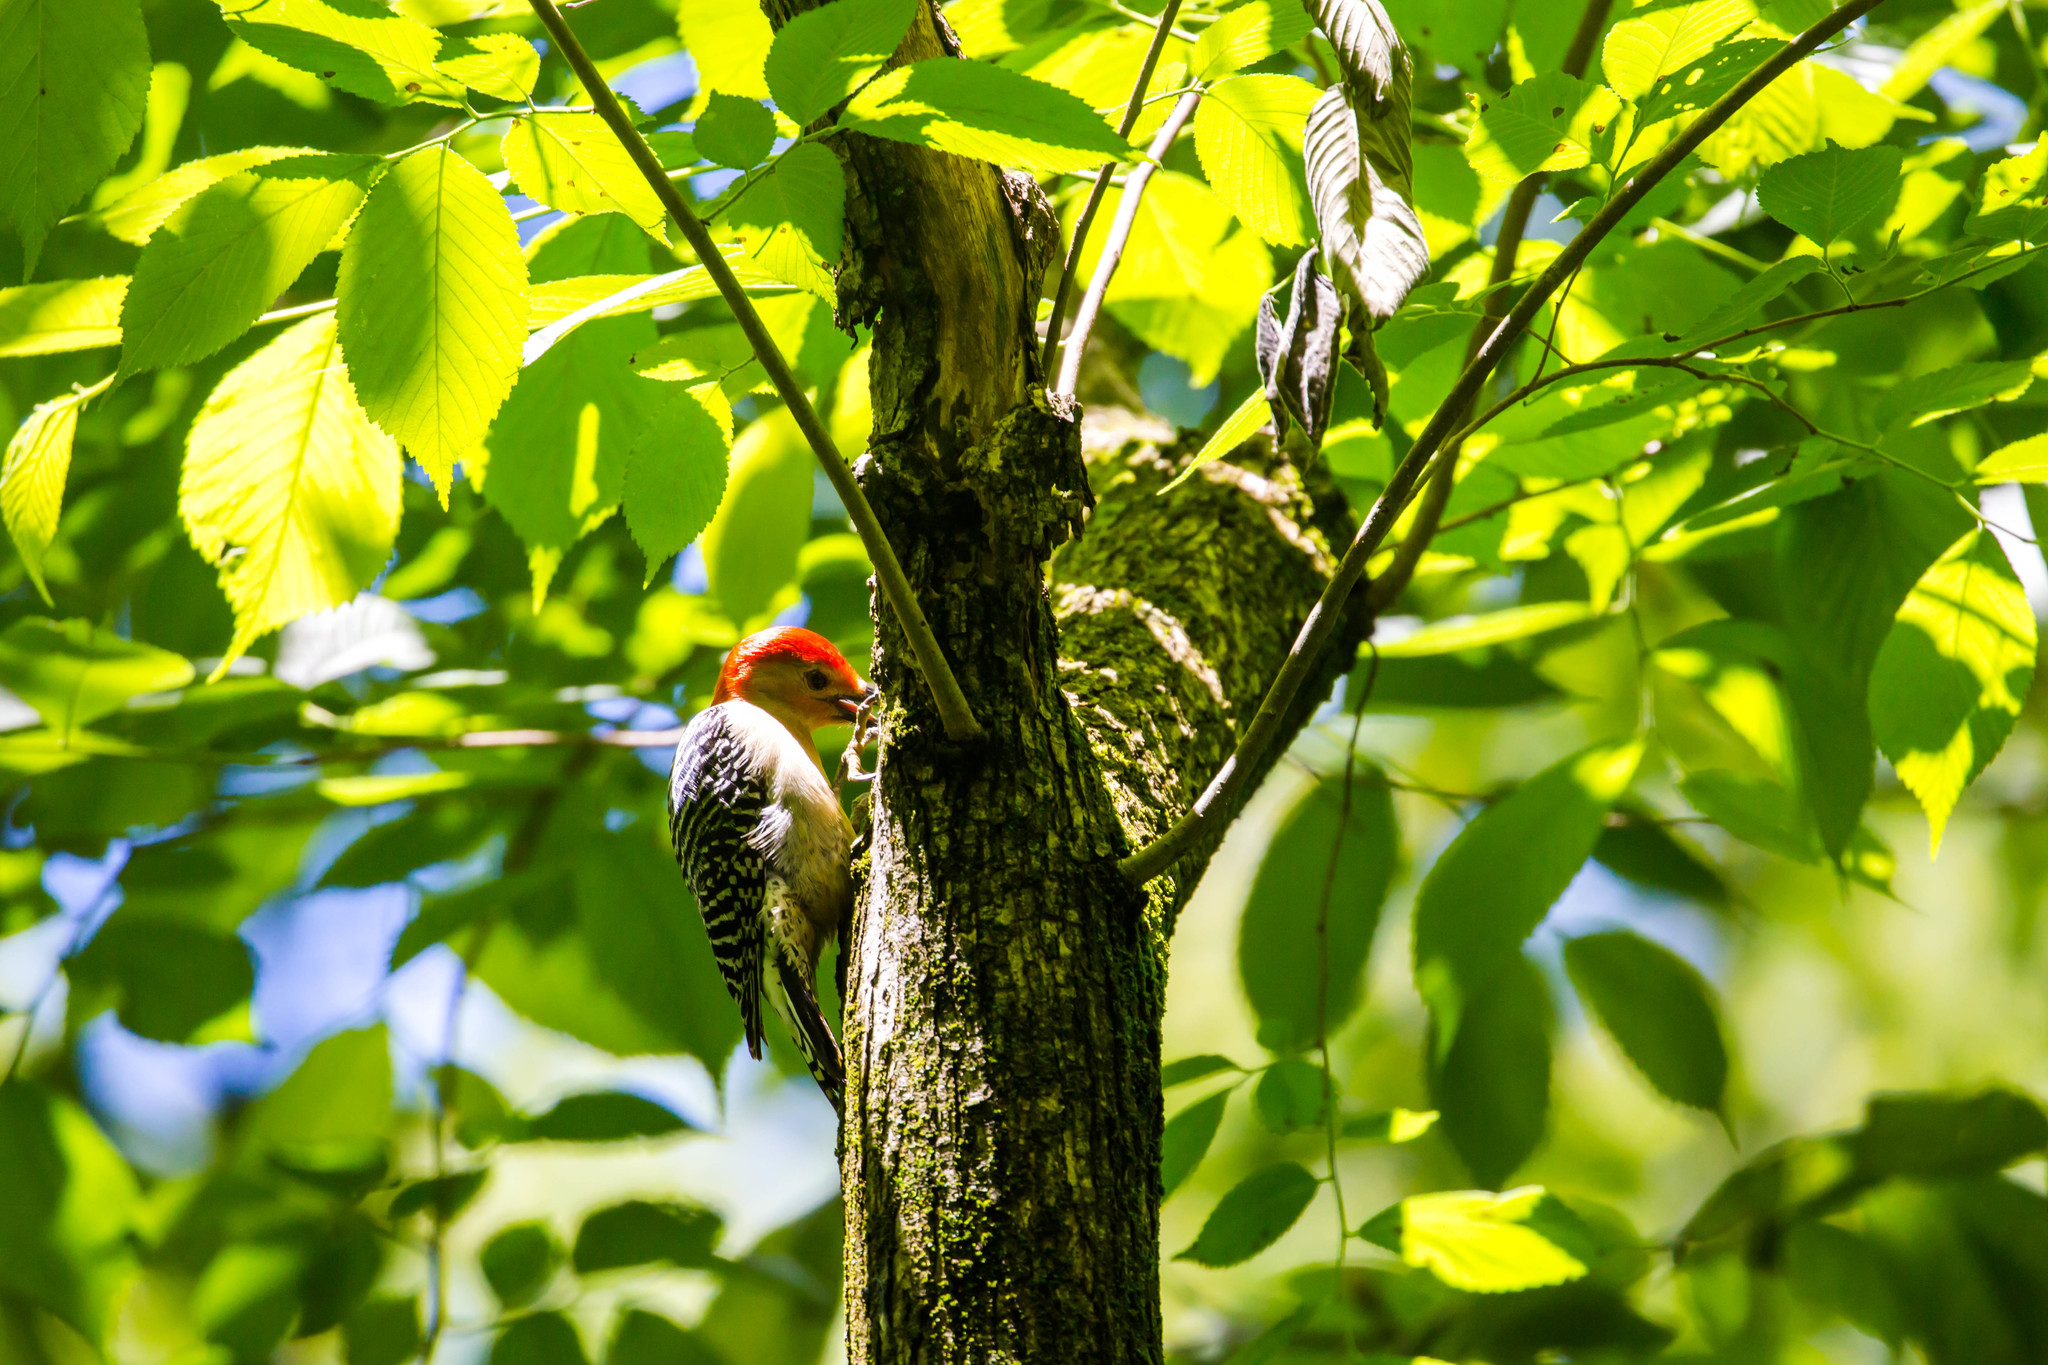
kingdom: Animalia
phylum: Chordata
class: Aves
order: Piciformes
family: Picidae
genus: Melanerpes
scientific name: Melanerpes carolinus
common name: Red-bellied woodpecker
